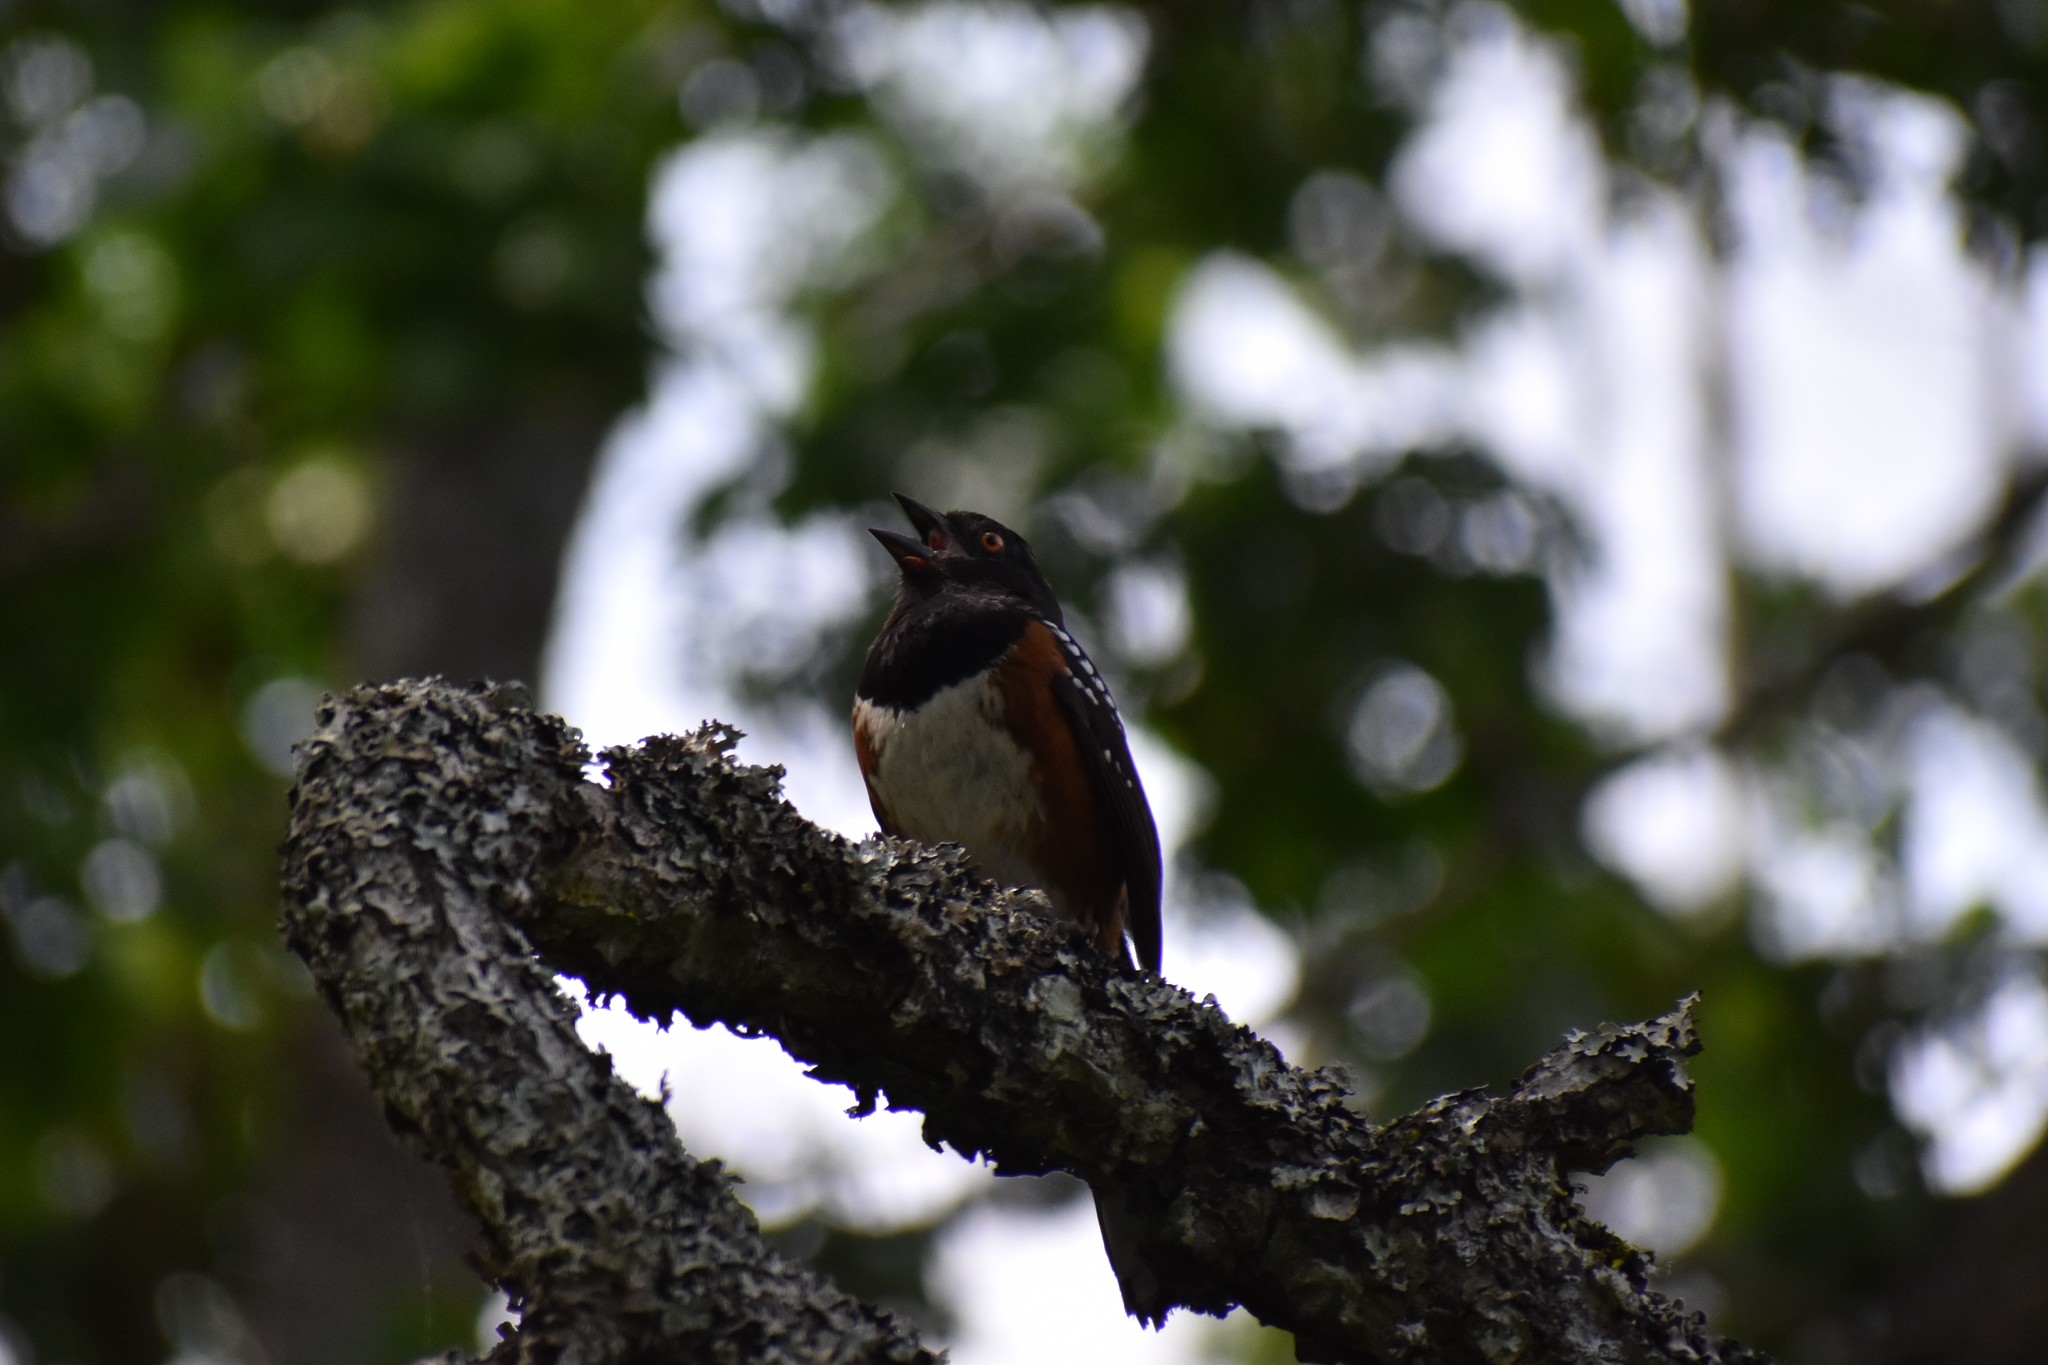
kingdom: Animalia
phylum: Chordata
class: Aves
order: Passeriformes
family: Passerellidae
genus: Pipilo
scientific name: Pipilo maculatus
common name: Spotted towhee
